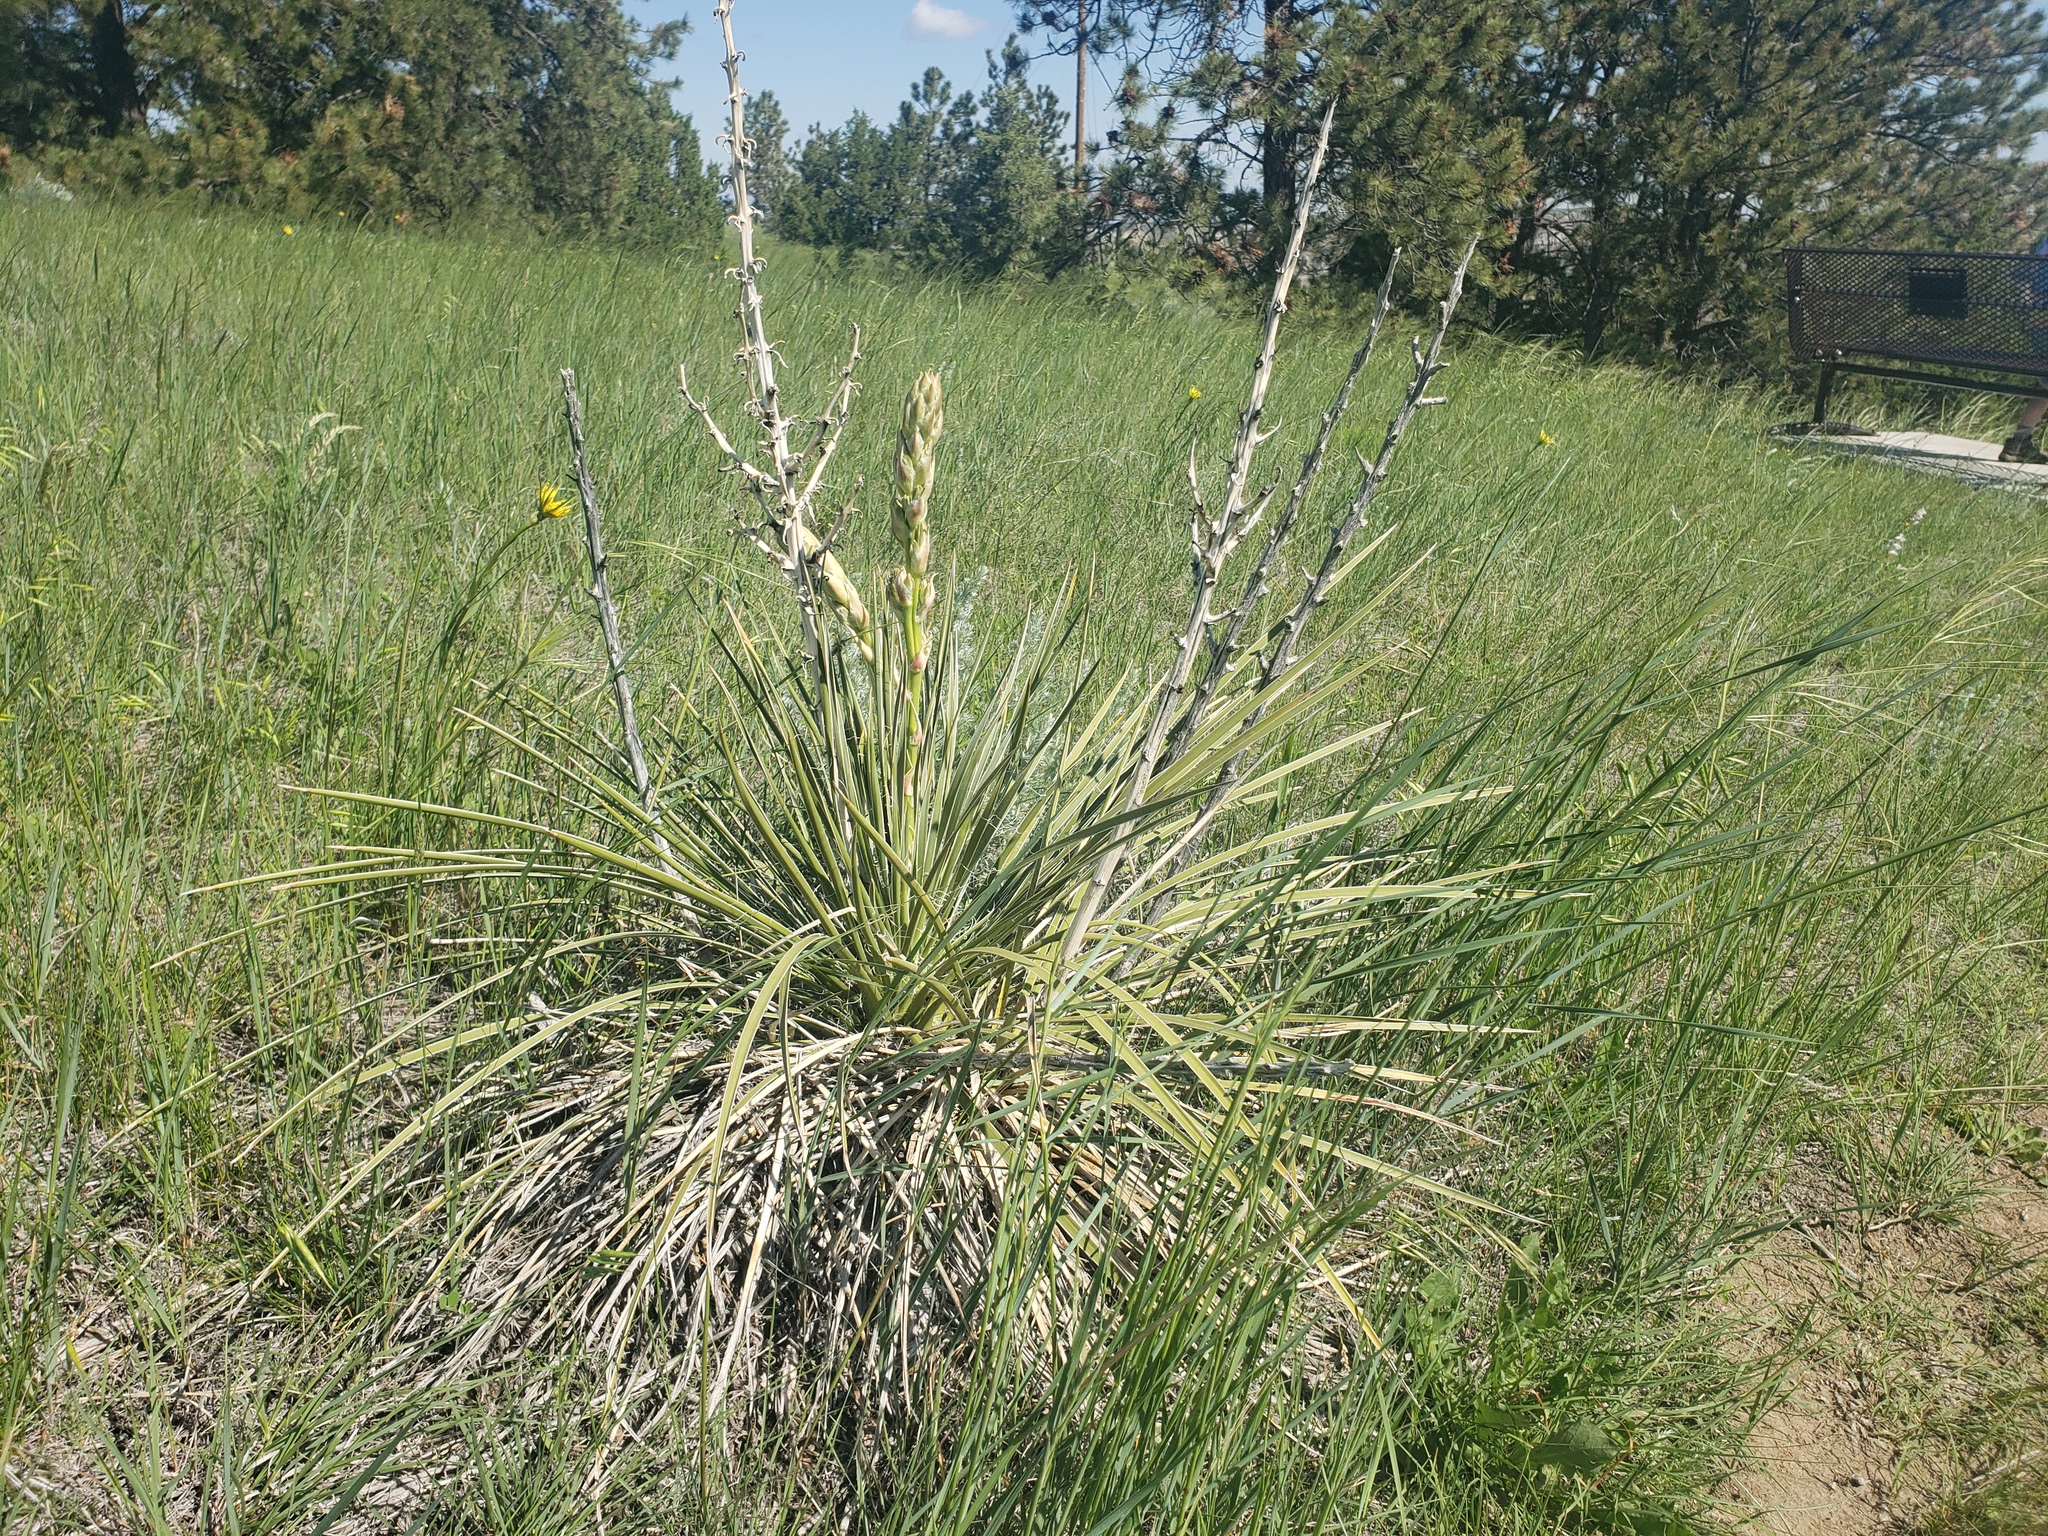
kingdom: Plantae
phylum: Tracheophyta
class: Liliopsida
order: Asparagales
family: Asparagaceae
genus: Yucca
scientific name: Yucca glauca
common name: Great plains yucca
